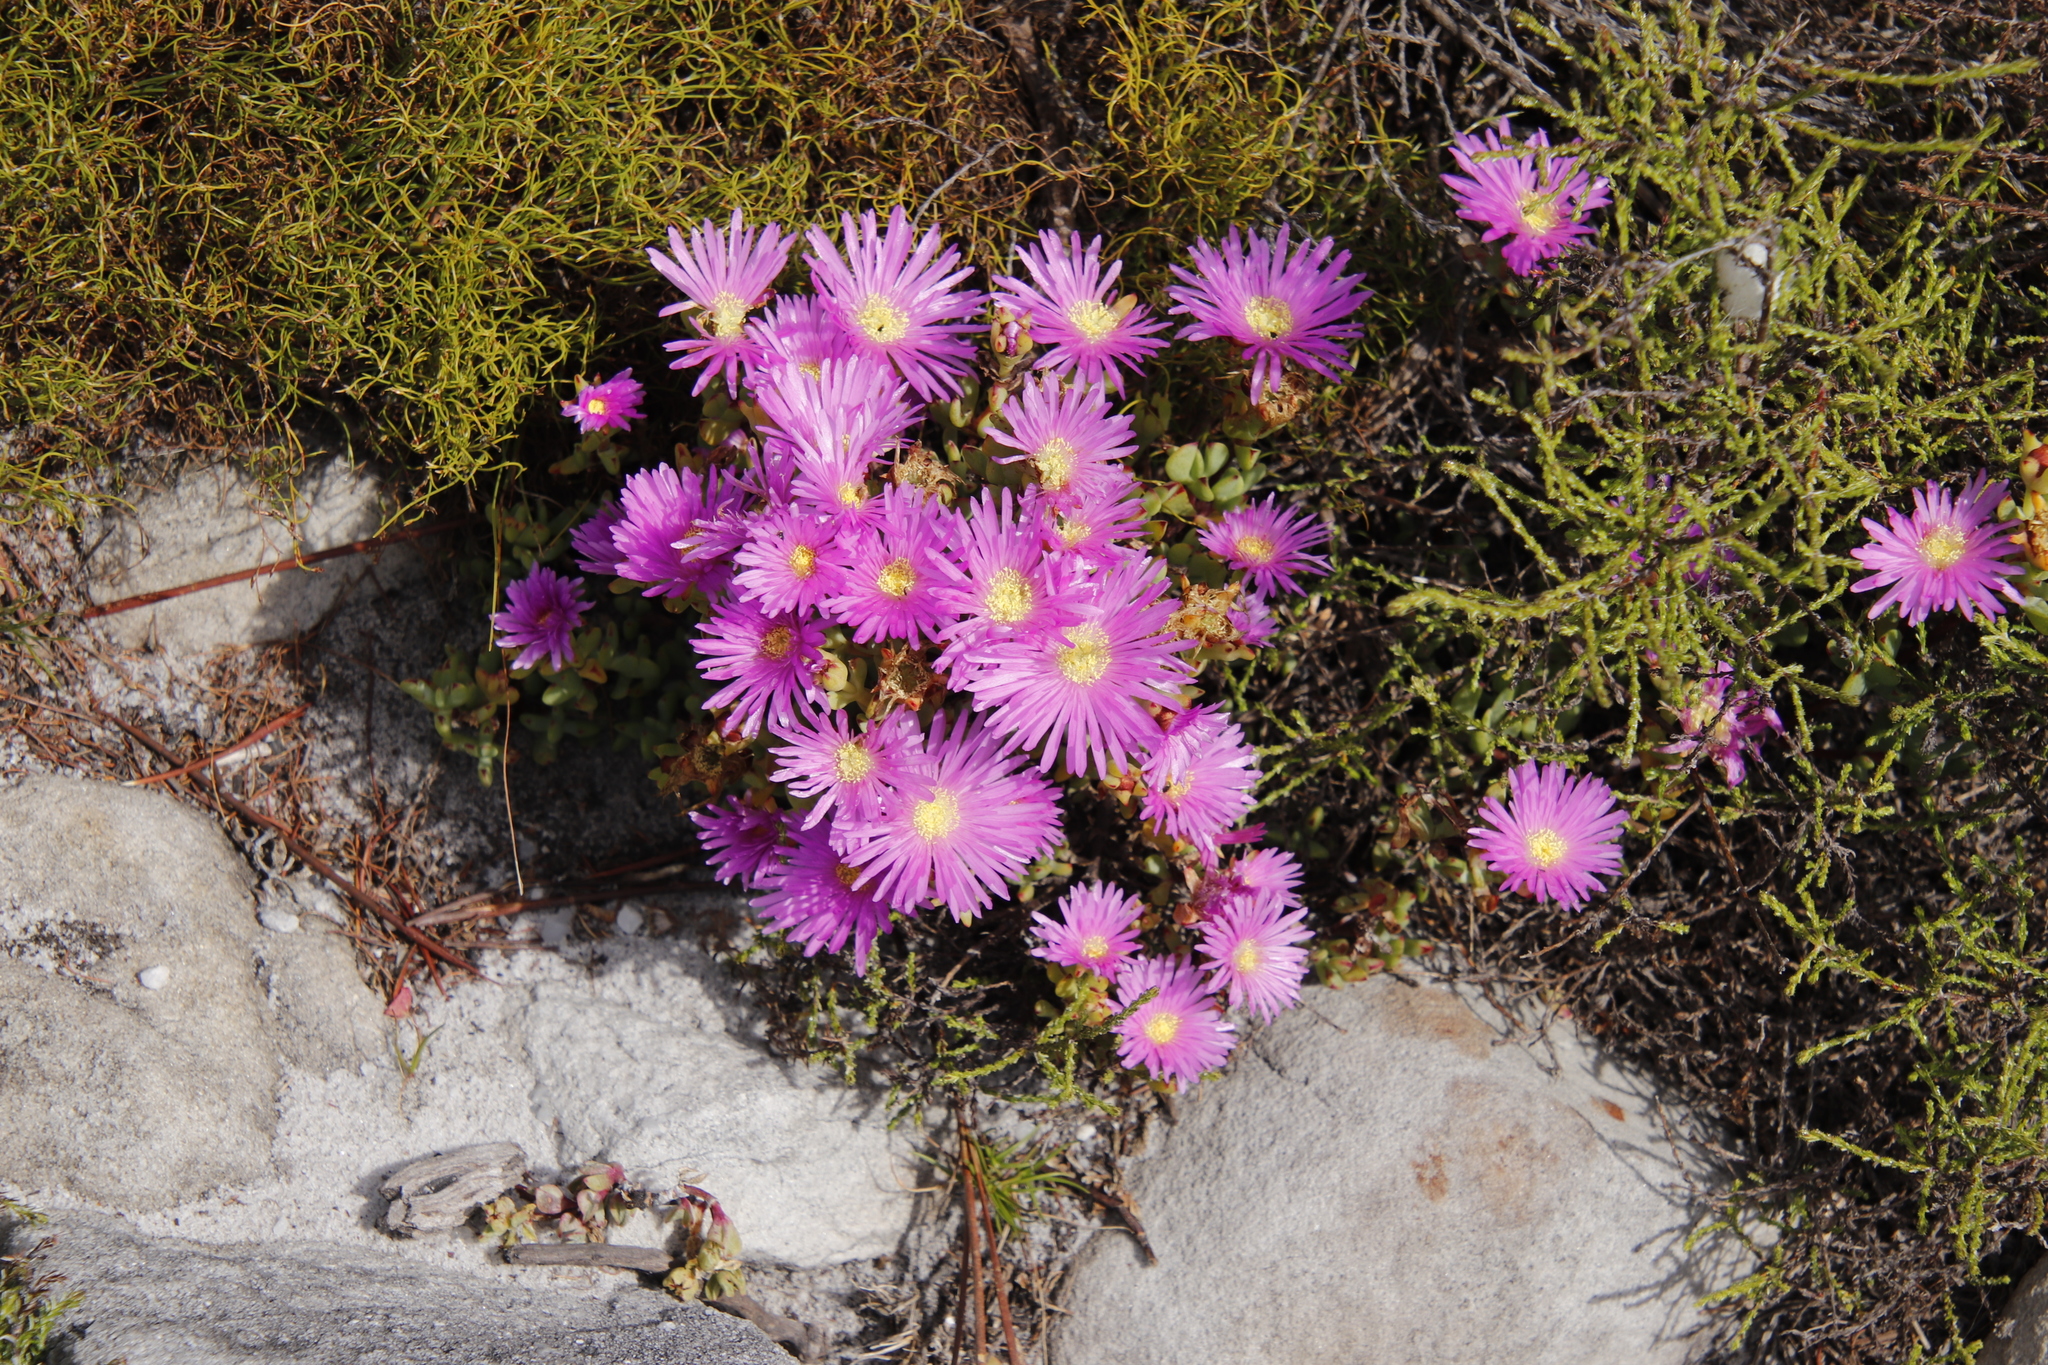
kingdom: Plantae
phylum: Tracheophyta
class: Magnoliopsida
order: Caryophyllales
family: Aizoaceae
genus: Oscularia
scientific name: Oscularia falciformis
